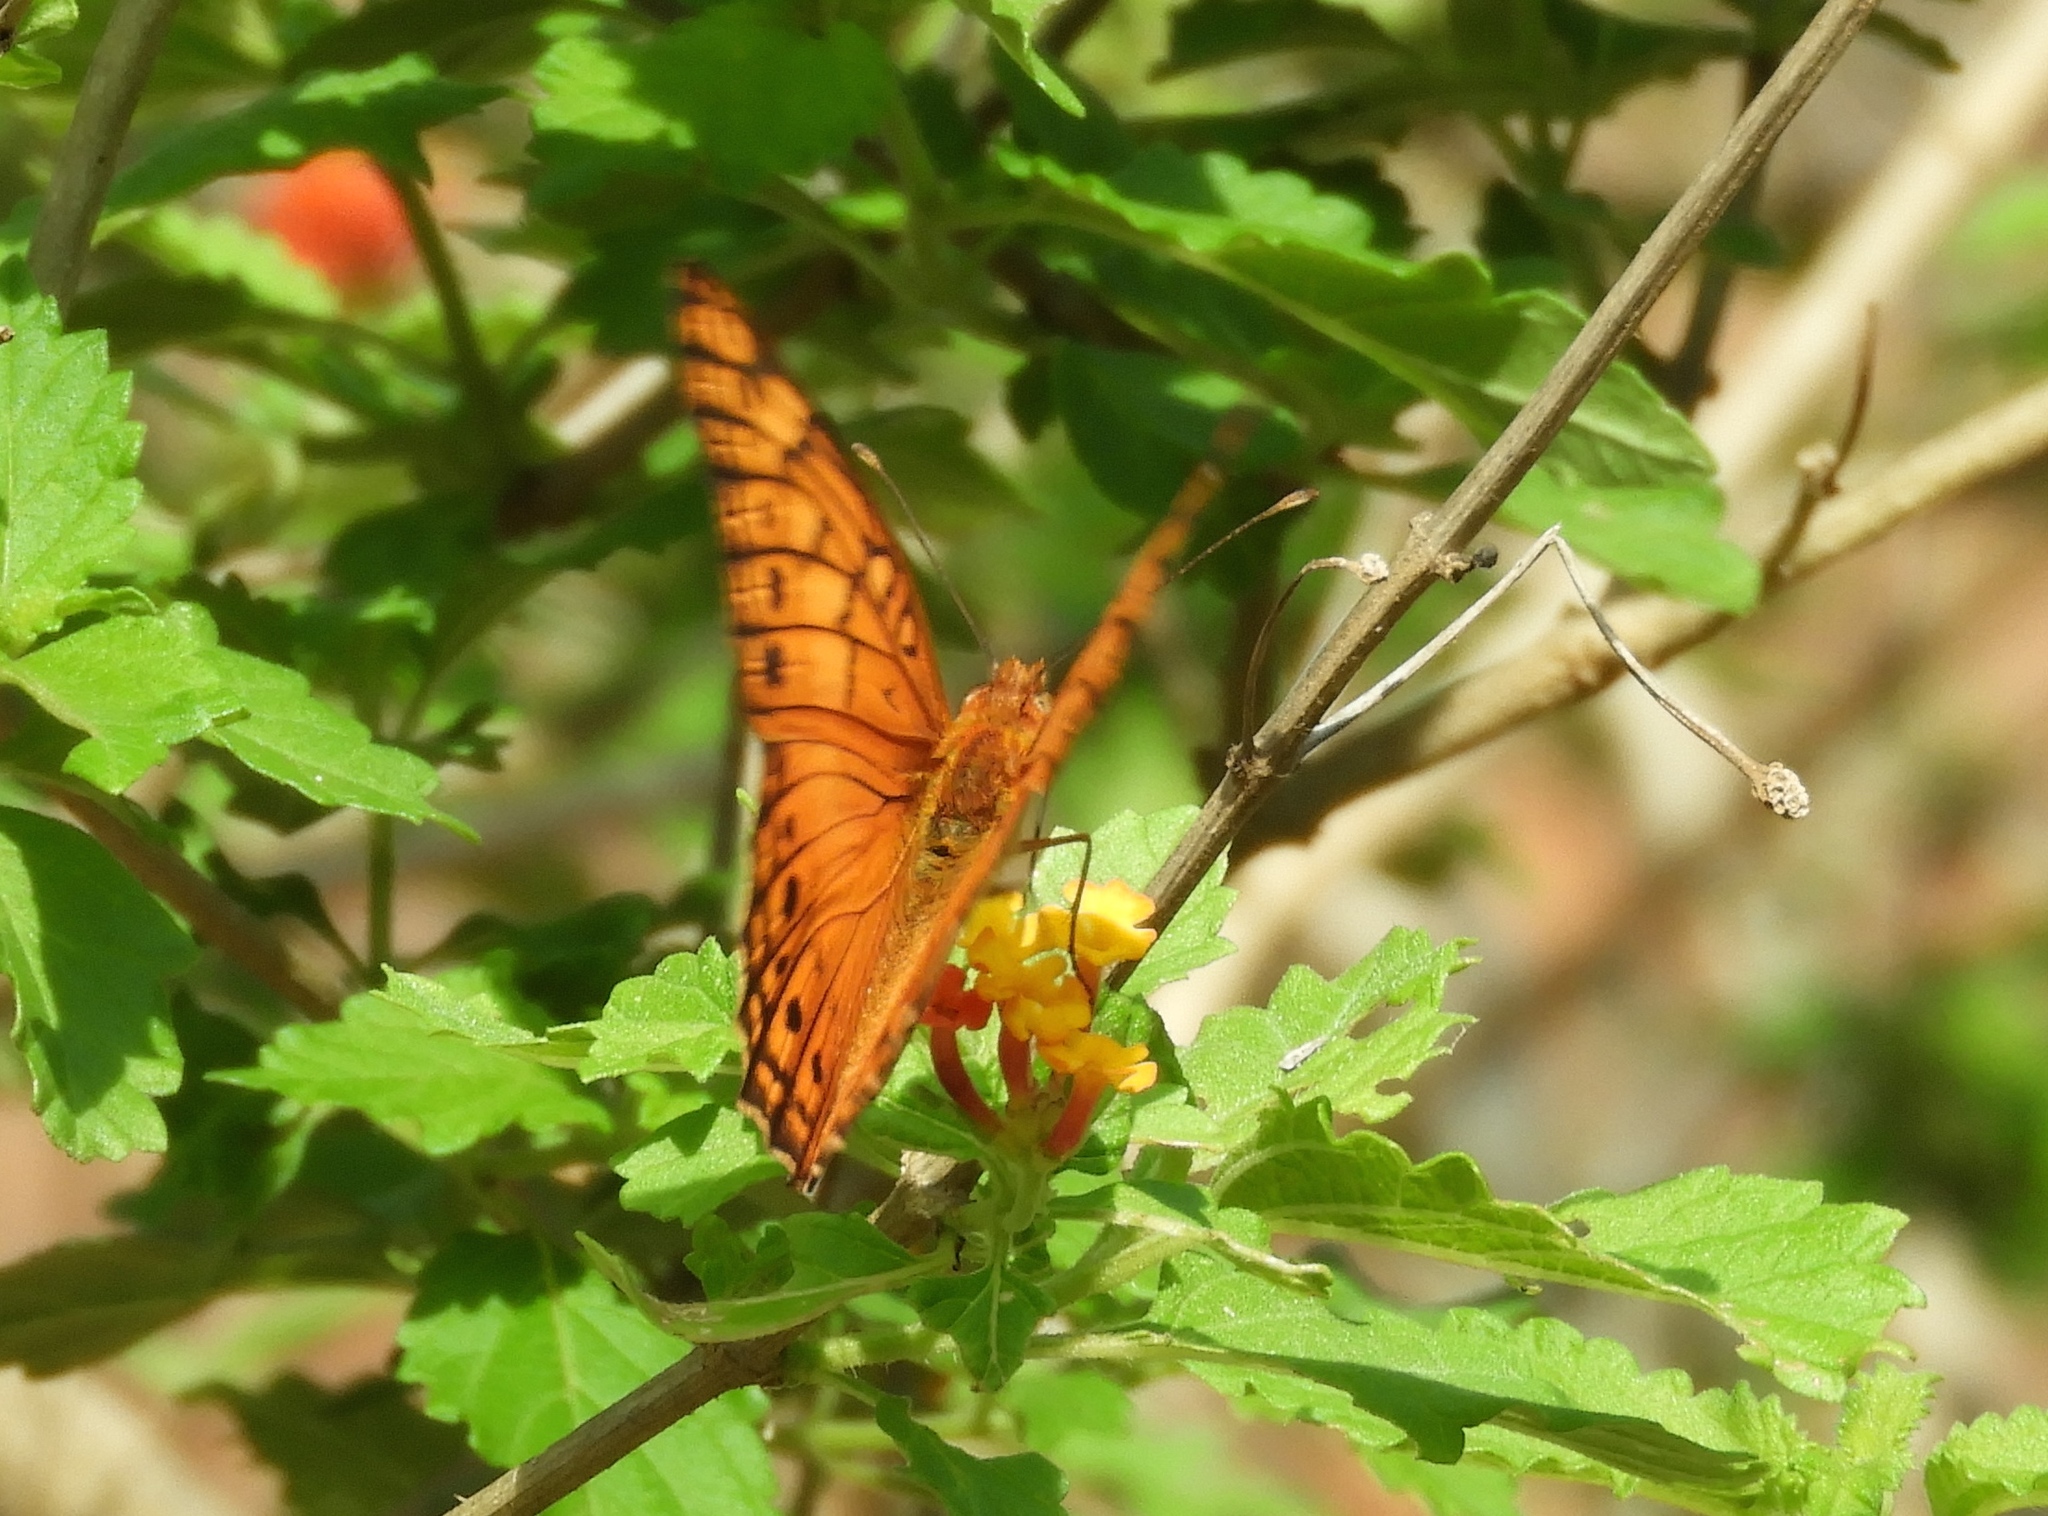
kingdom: Animalia
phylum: Arthropoda
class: Insecta
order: Lepidoptera
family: Nymphalidae
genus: Euptoieta
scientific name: Euptoieta hegesia
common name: Mexican fritillary
